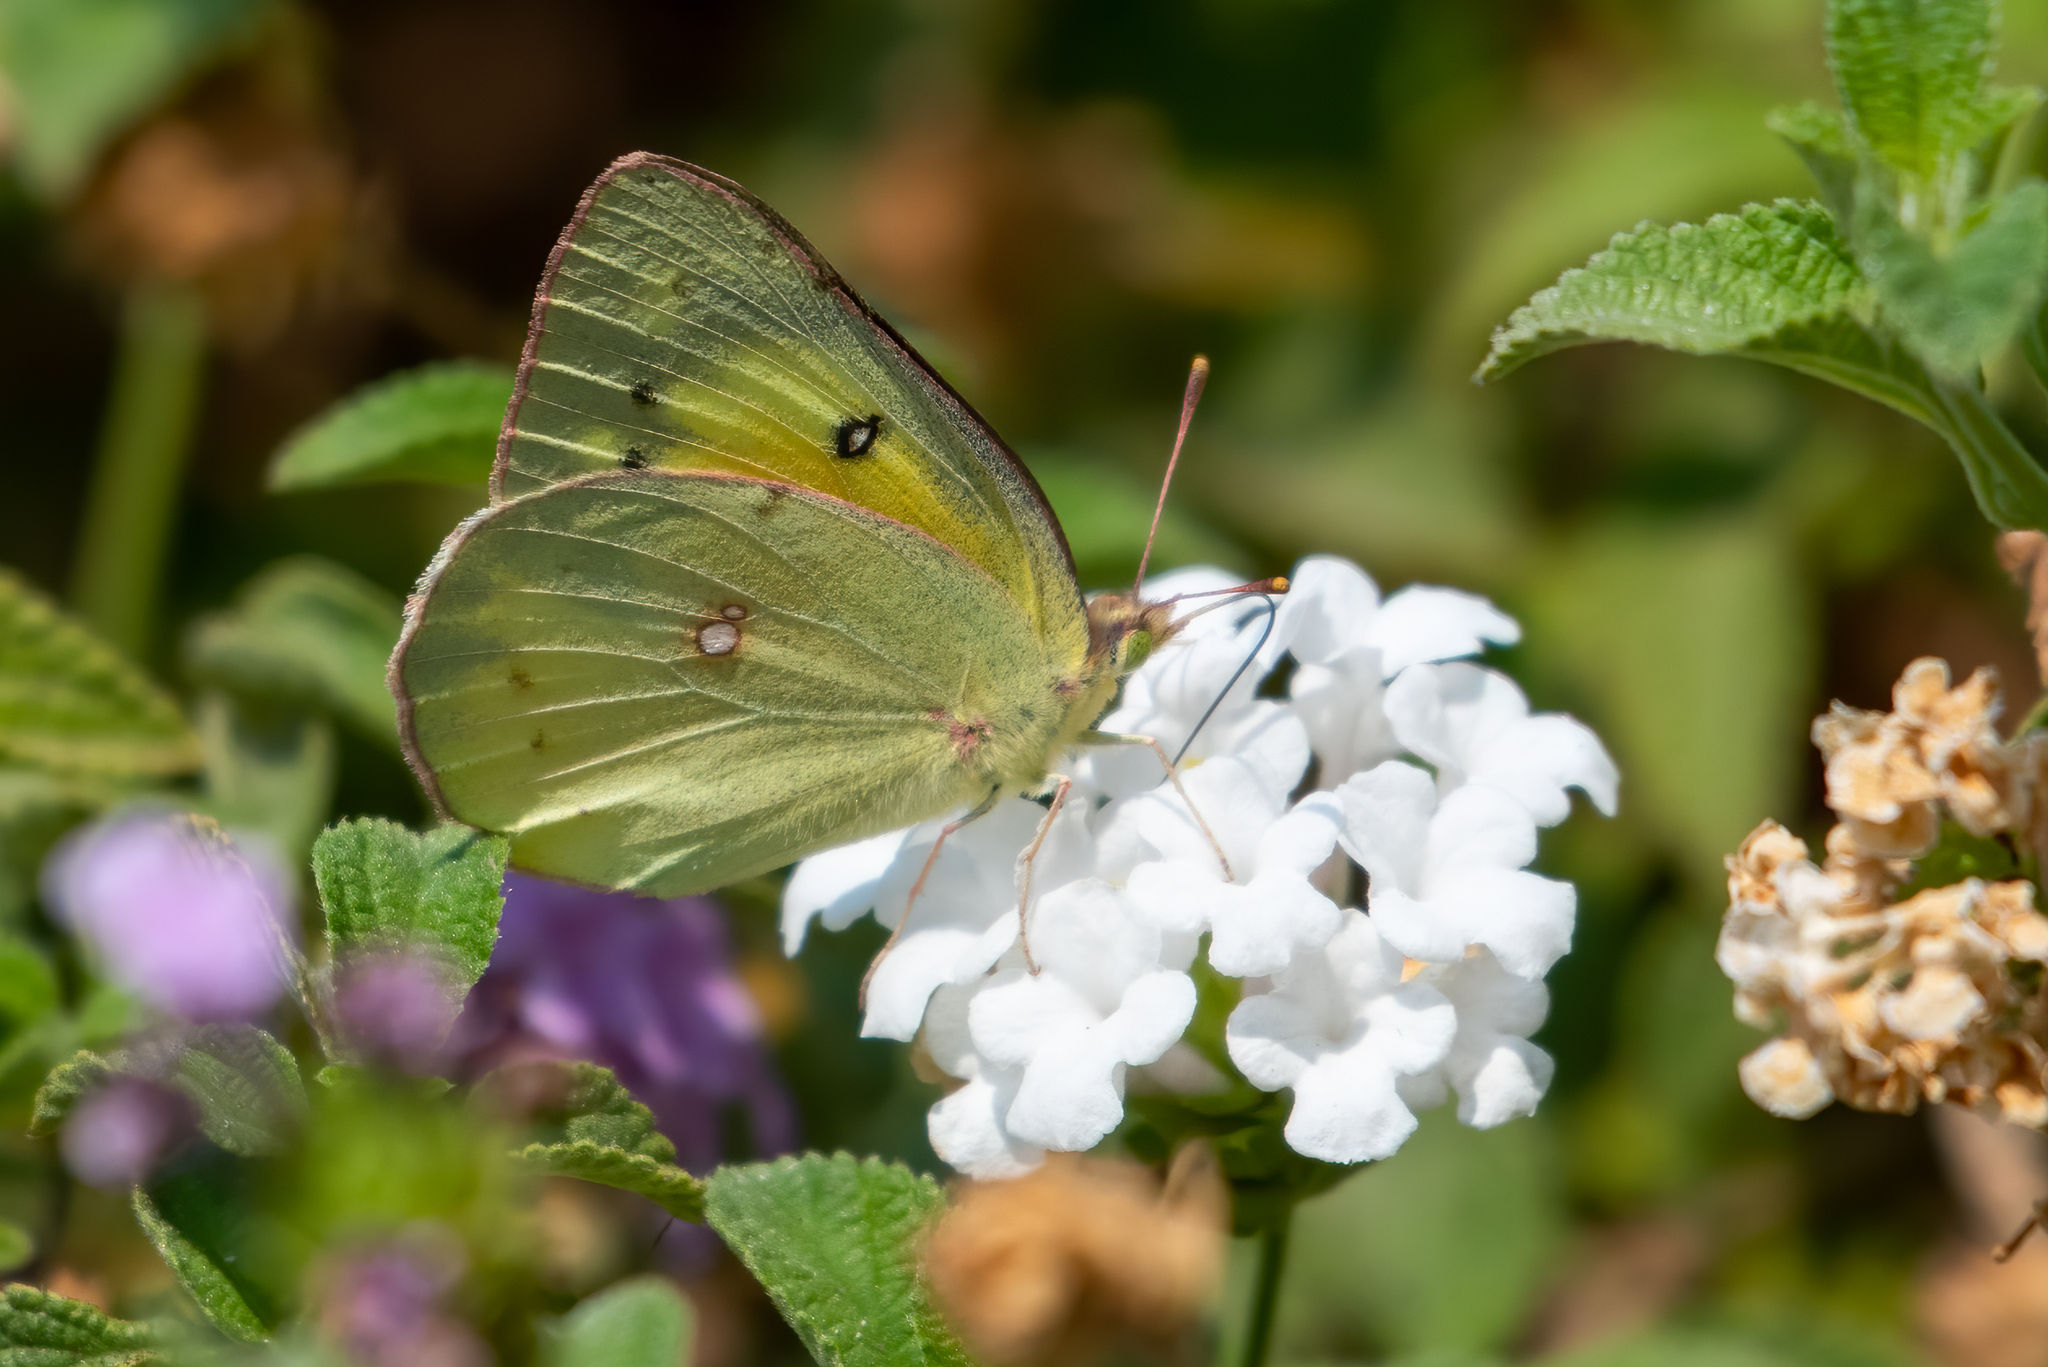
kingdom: Animalia
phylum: Arthropoda
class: Insecta
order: Lepidoptera
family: Pieridae
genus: Colias
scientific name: Colias eurytheme
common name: Alfalfa butterfly
